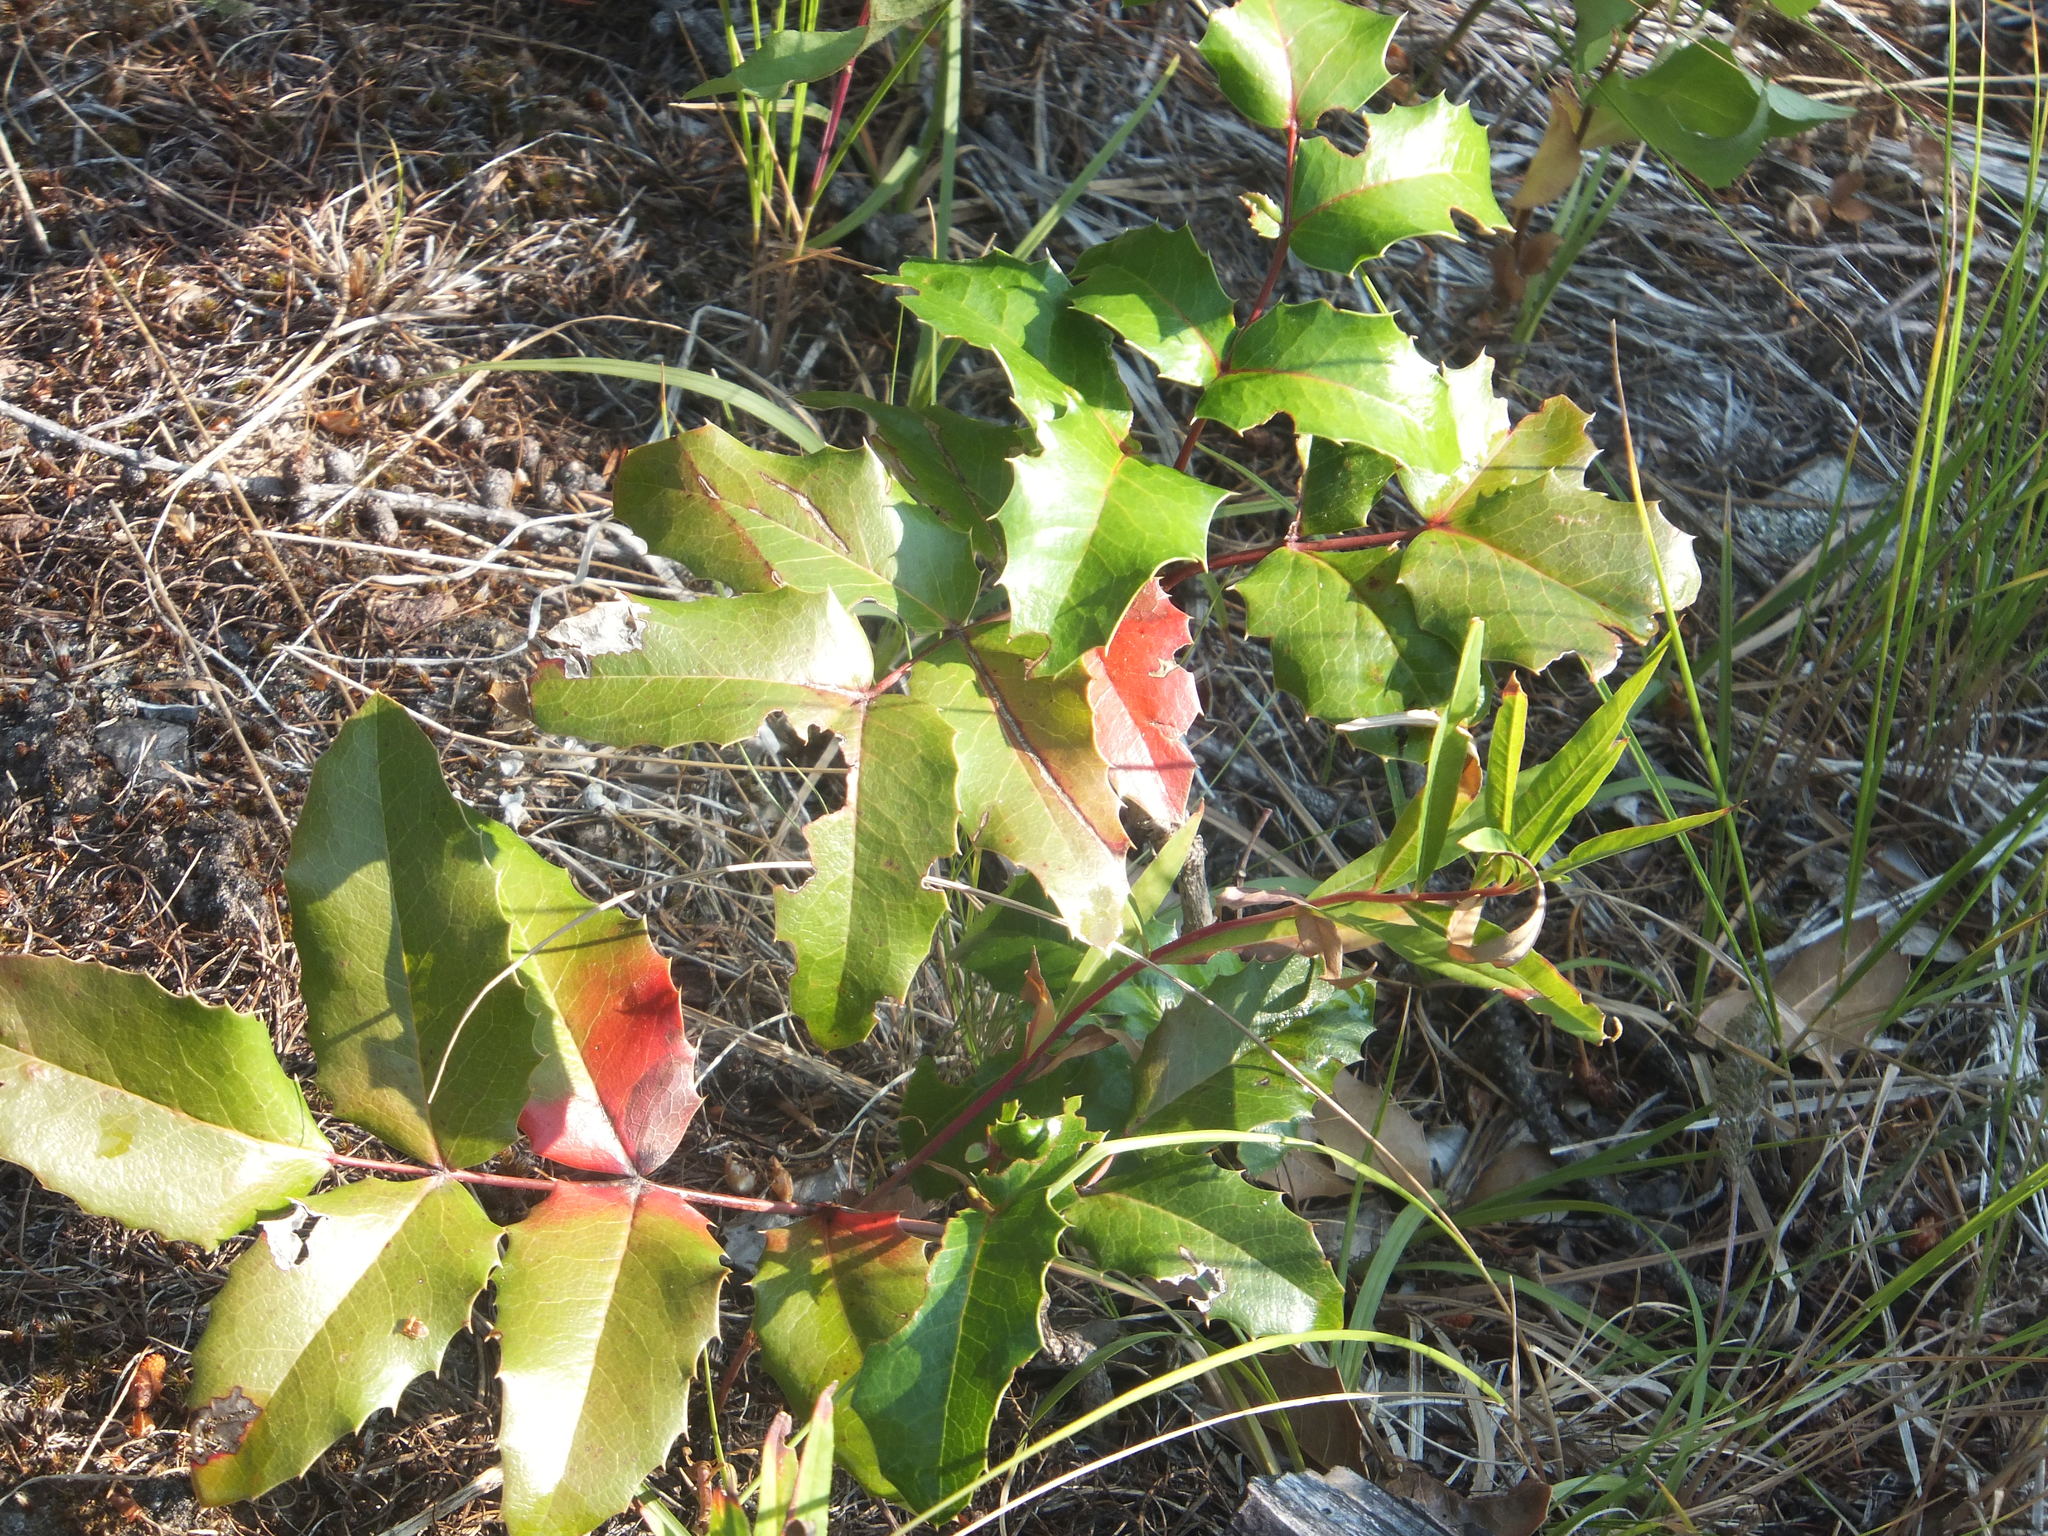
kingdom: Plantae
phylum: Tracheophyta
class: Magnoliopsida
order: Ranunculales
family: Berberidaceae
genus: Mahonia
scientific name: Mahonia aquifolium
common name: Oregon-grape
